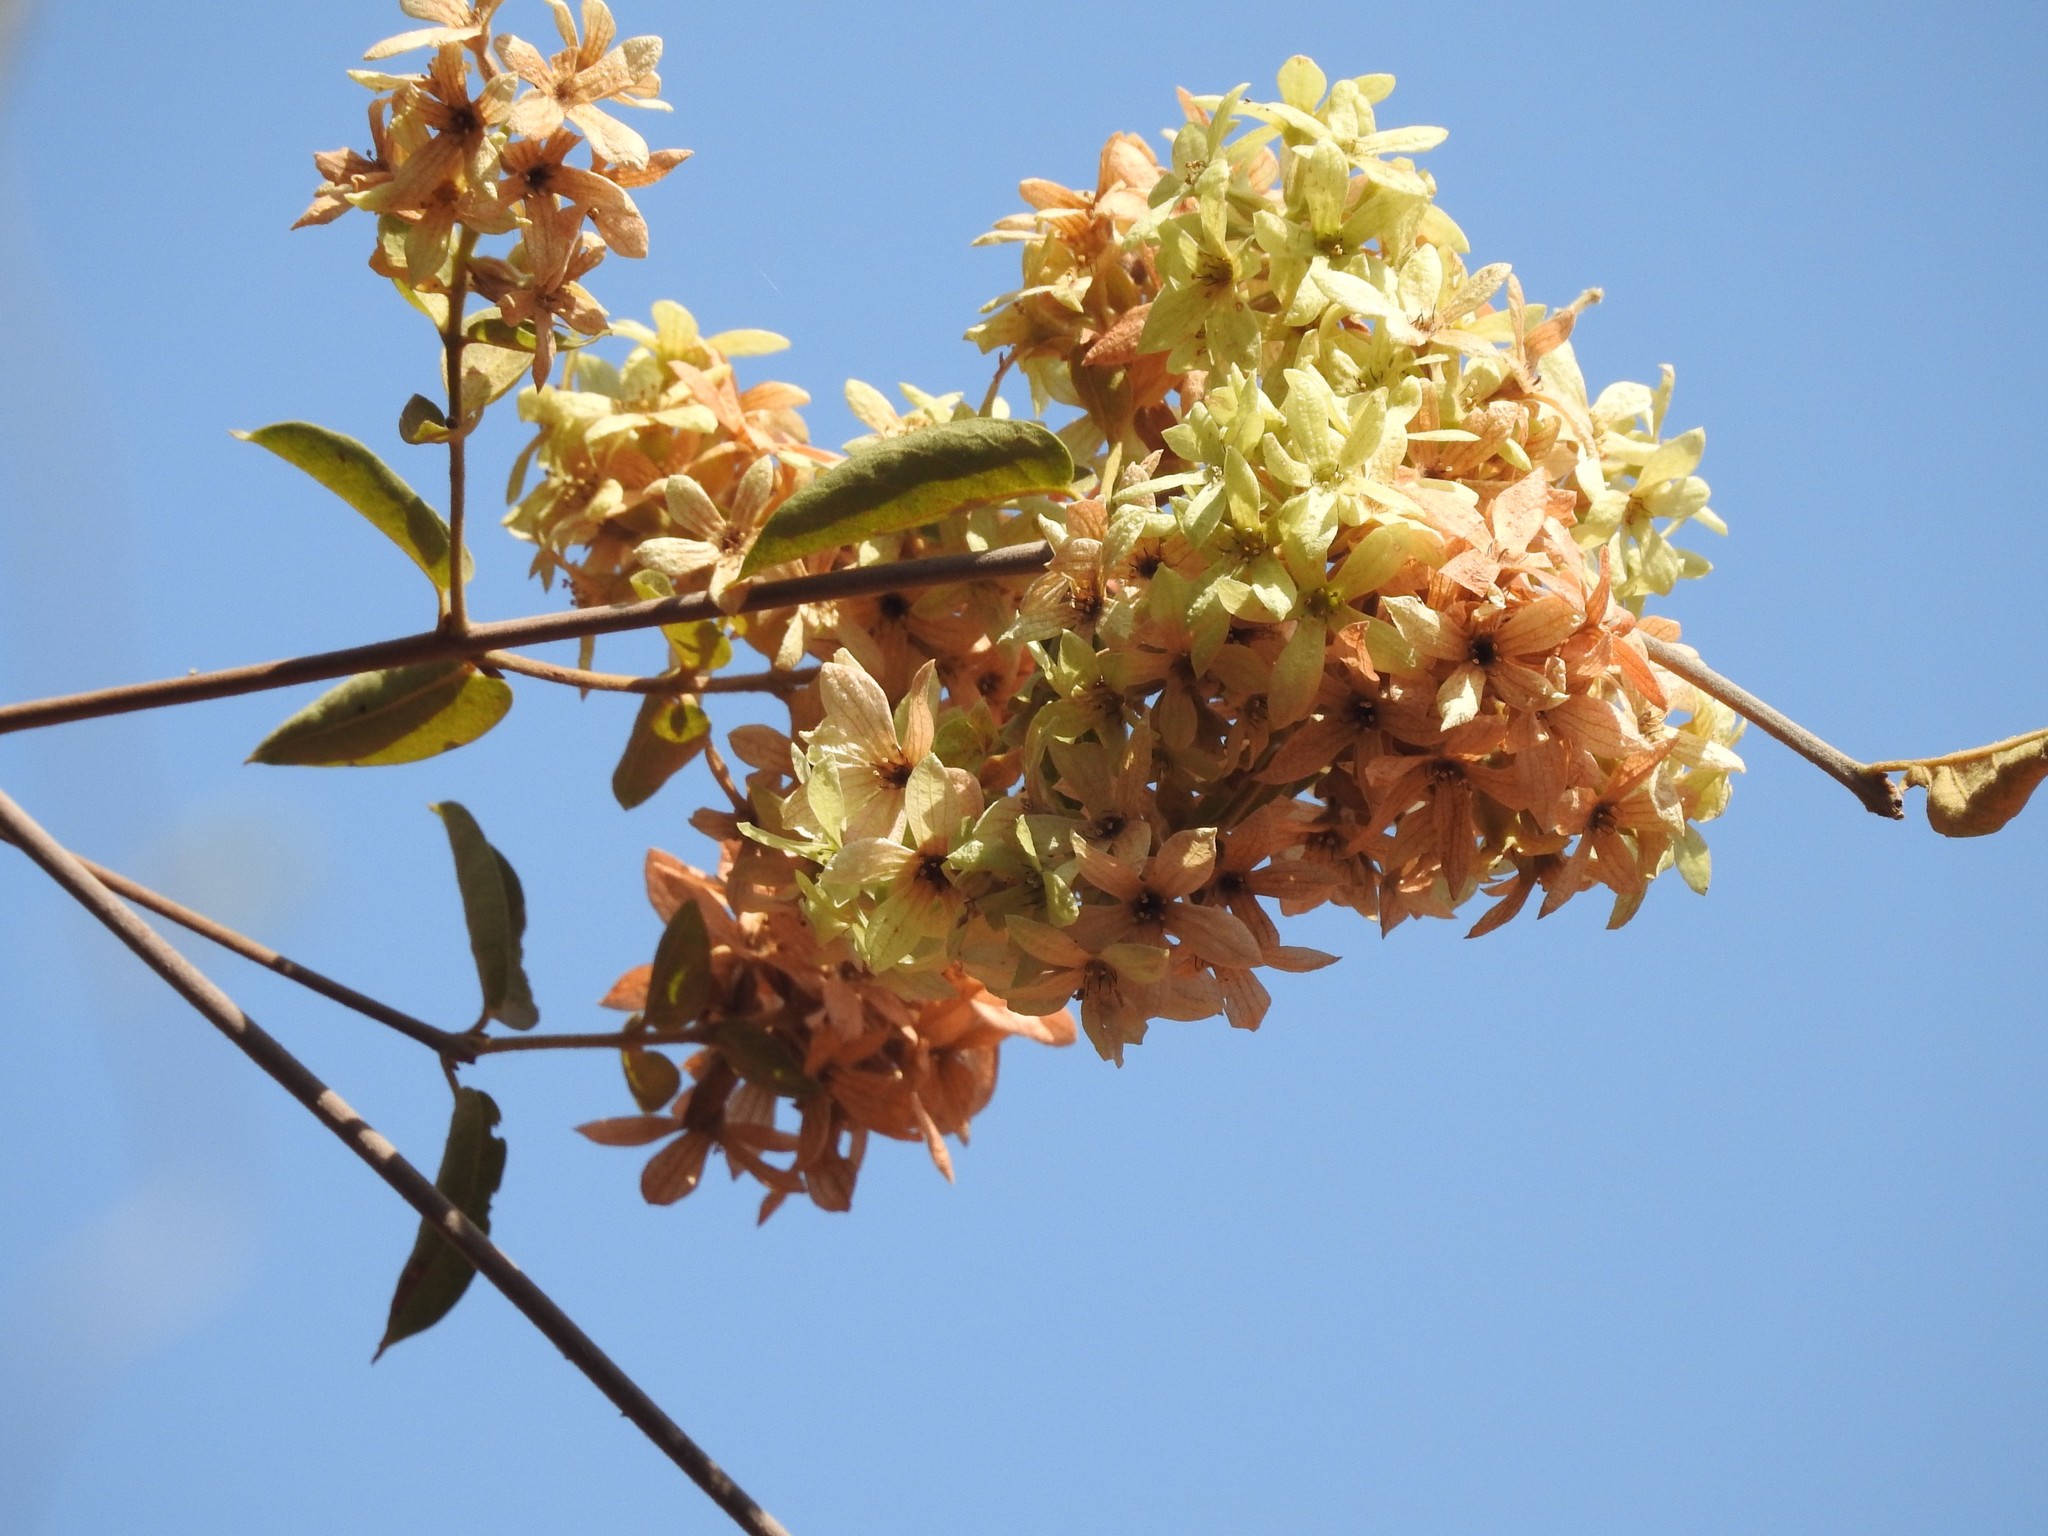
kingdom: Plantae
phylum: Tracheophyta
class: Magnoliopsida
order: Myrtales
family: Combretaceae
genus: Getonia
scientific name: Getonia floribunda
